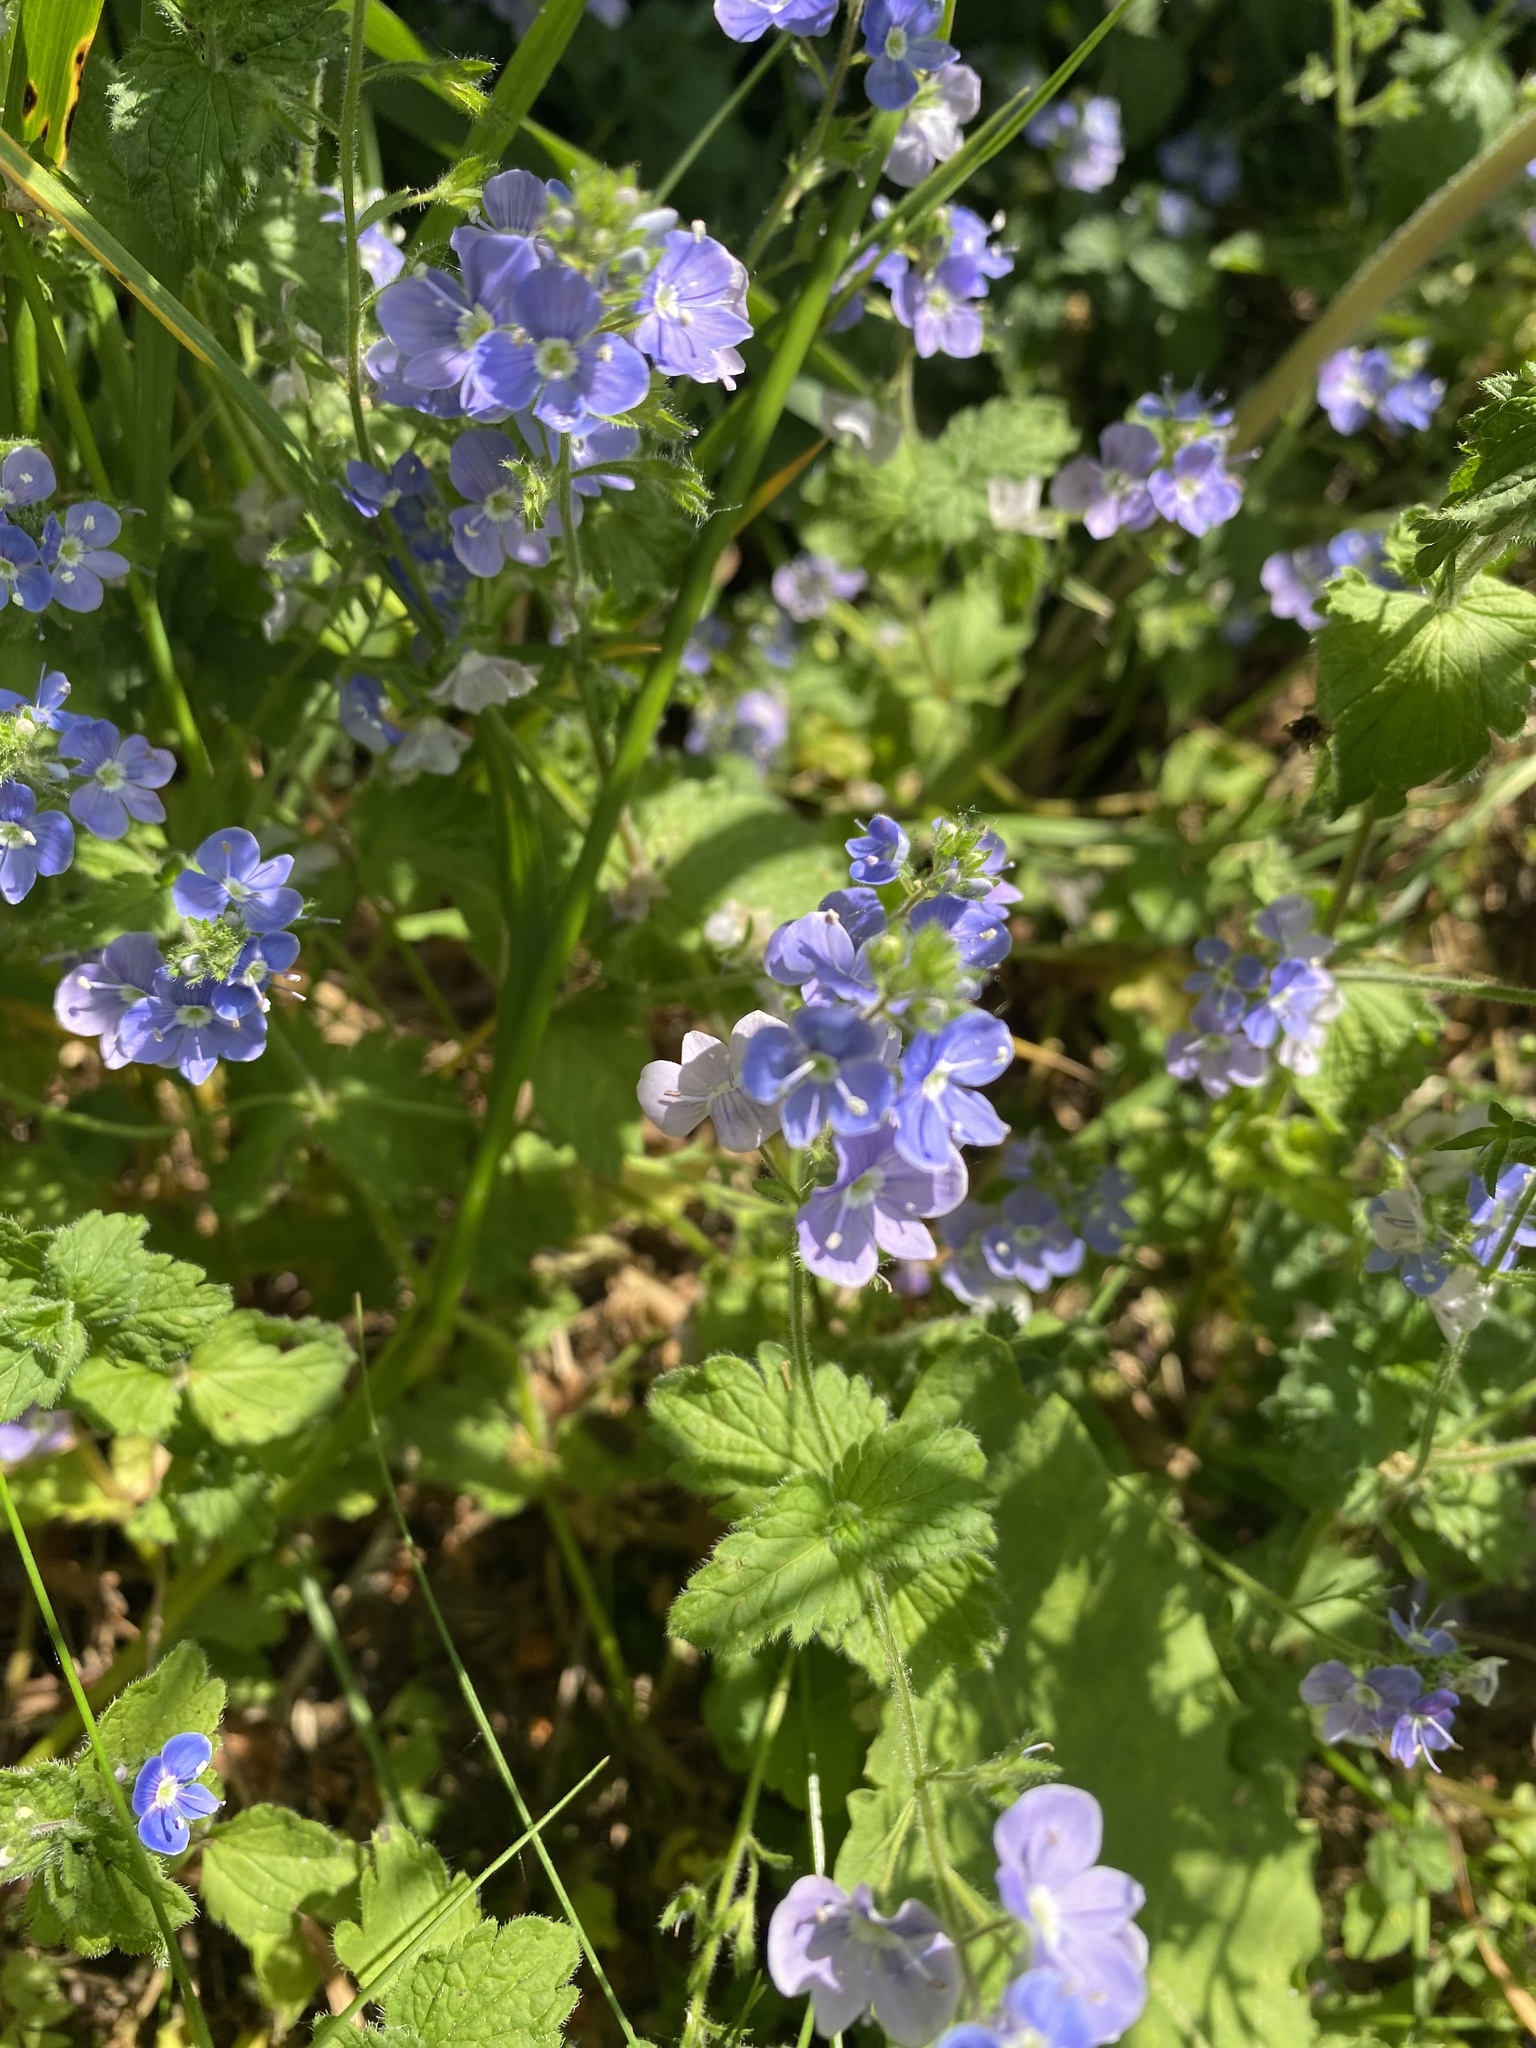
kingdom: Plantae
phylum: Tracheophyta
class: Magnoliopsida
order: Lamiales
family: Plantaginaceae
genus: Veronica
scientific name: Veronica chamaedrys
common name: Germander speedwell
